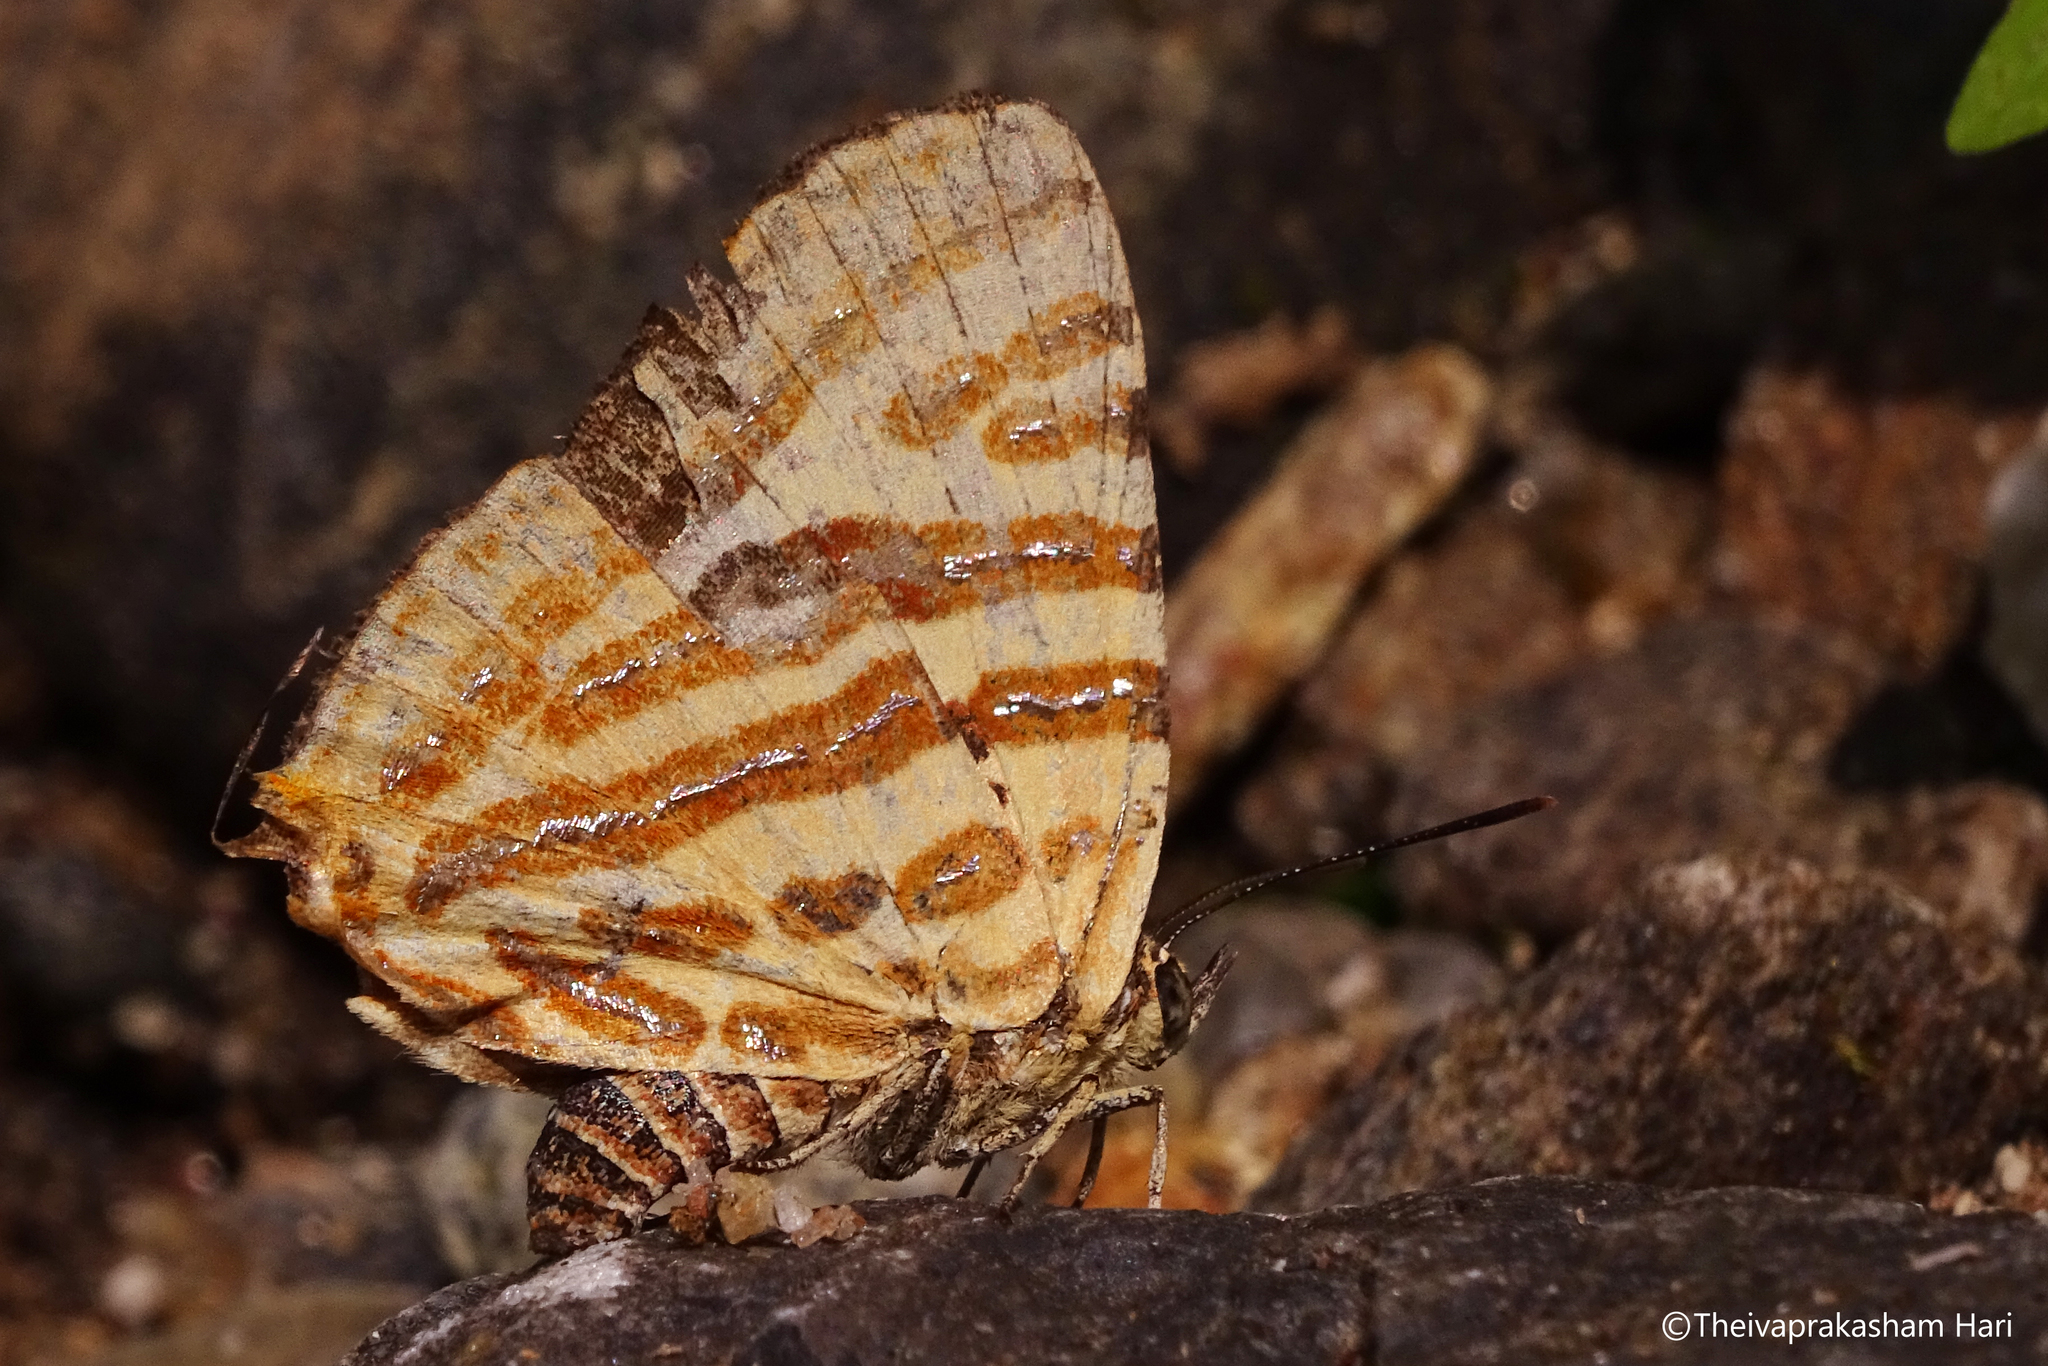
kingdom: Animalia
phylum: Arthropoda
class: Insecta
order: Lepidoptera
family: Lycaenidae
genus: Cigaritis
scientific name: Cigaritis lohita
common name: Long-banded silverline
